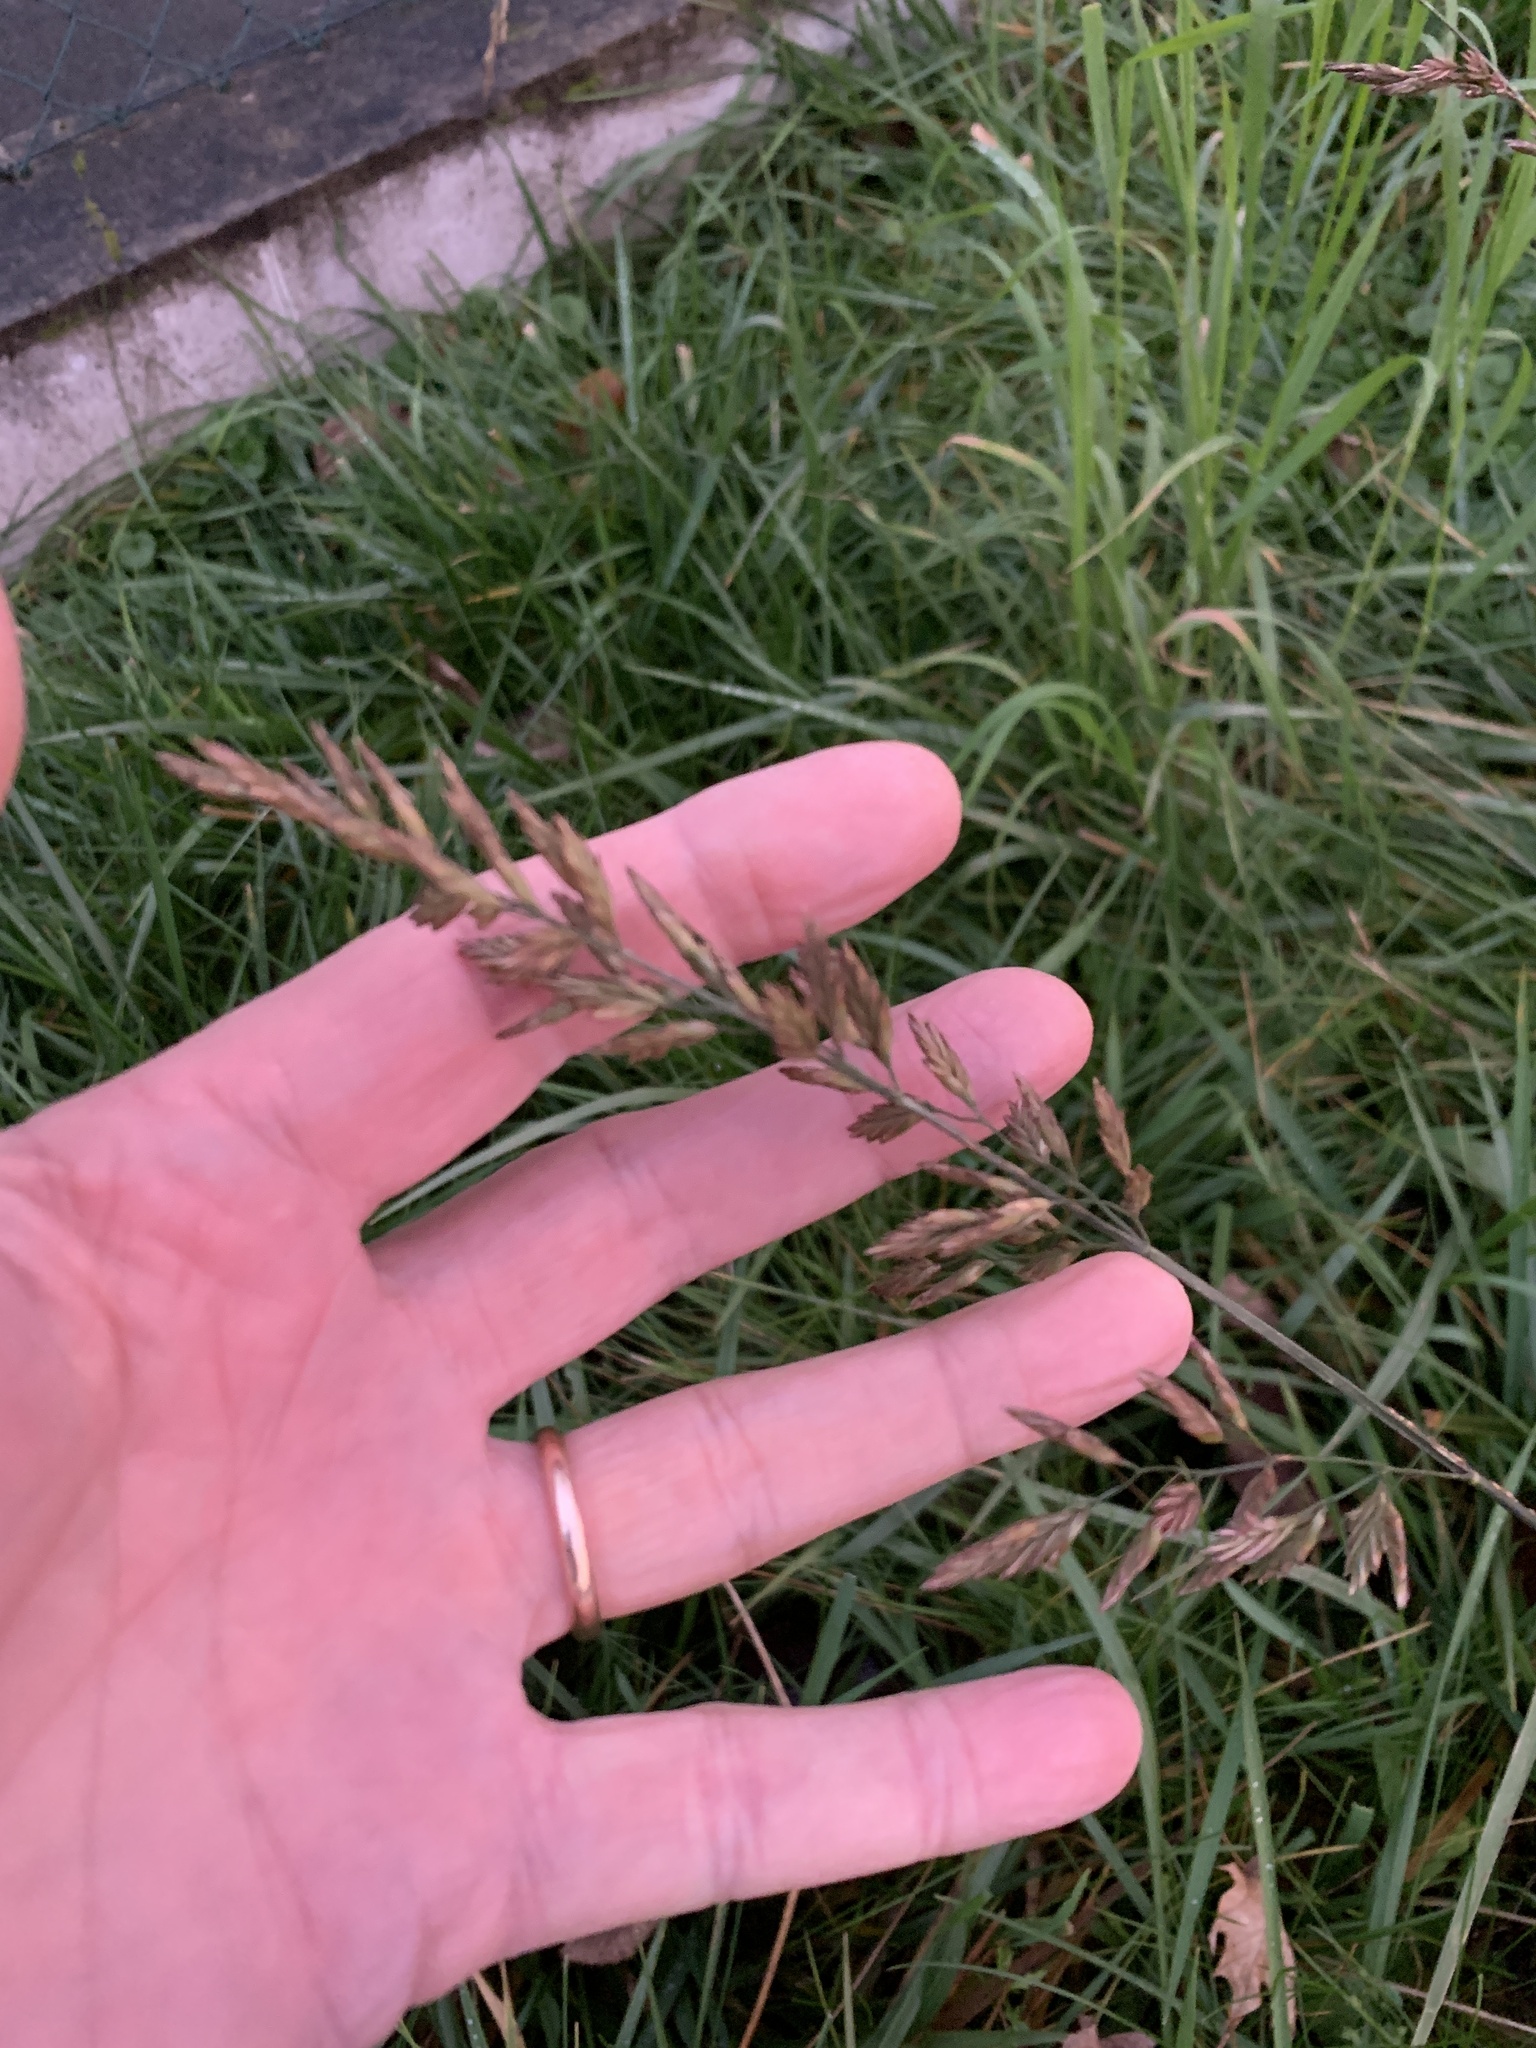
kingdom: Plantae
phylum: Tracheophyta
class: Liliopsida
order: Poales
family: Poaceae
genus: Lolium
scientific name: Lolium arundinaceum
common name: Reed fescue
